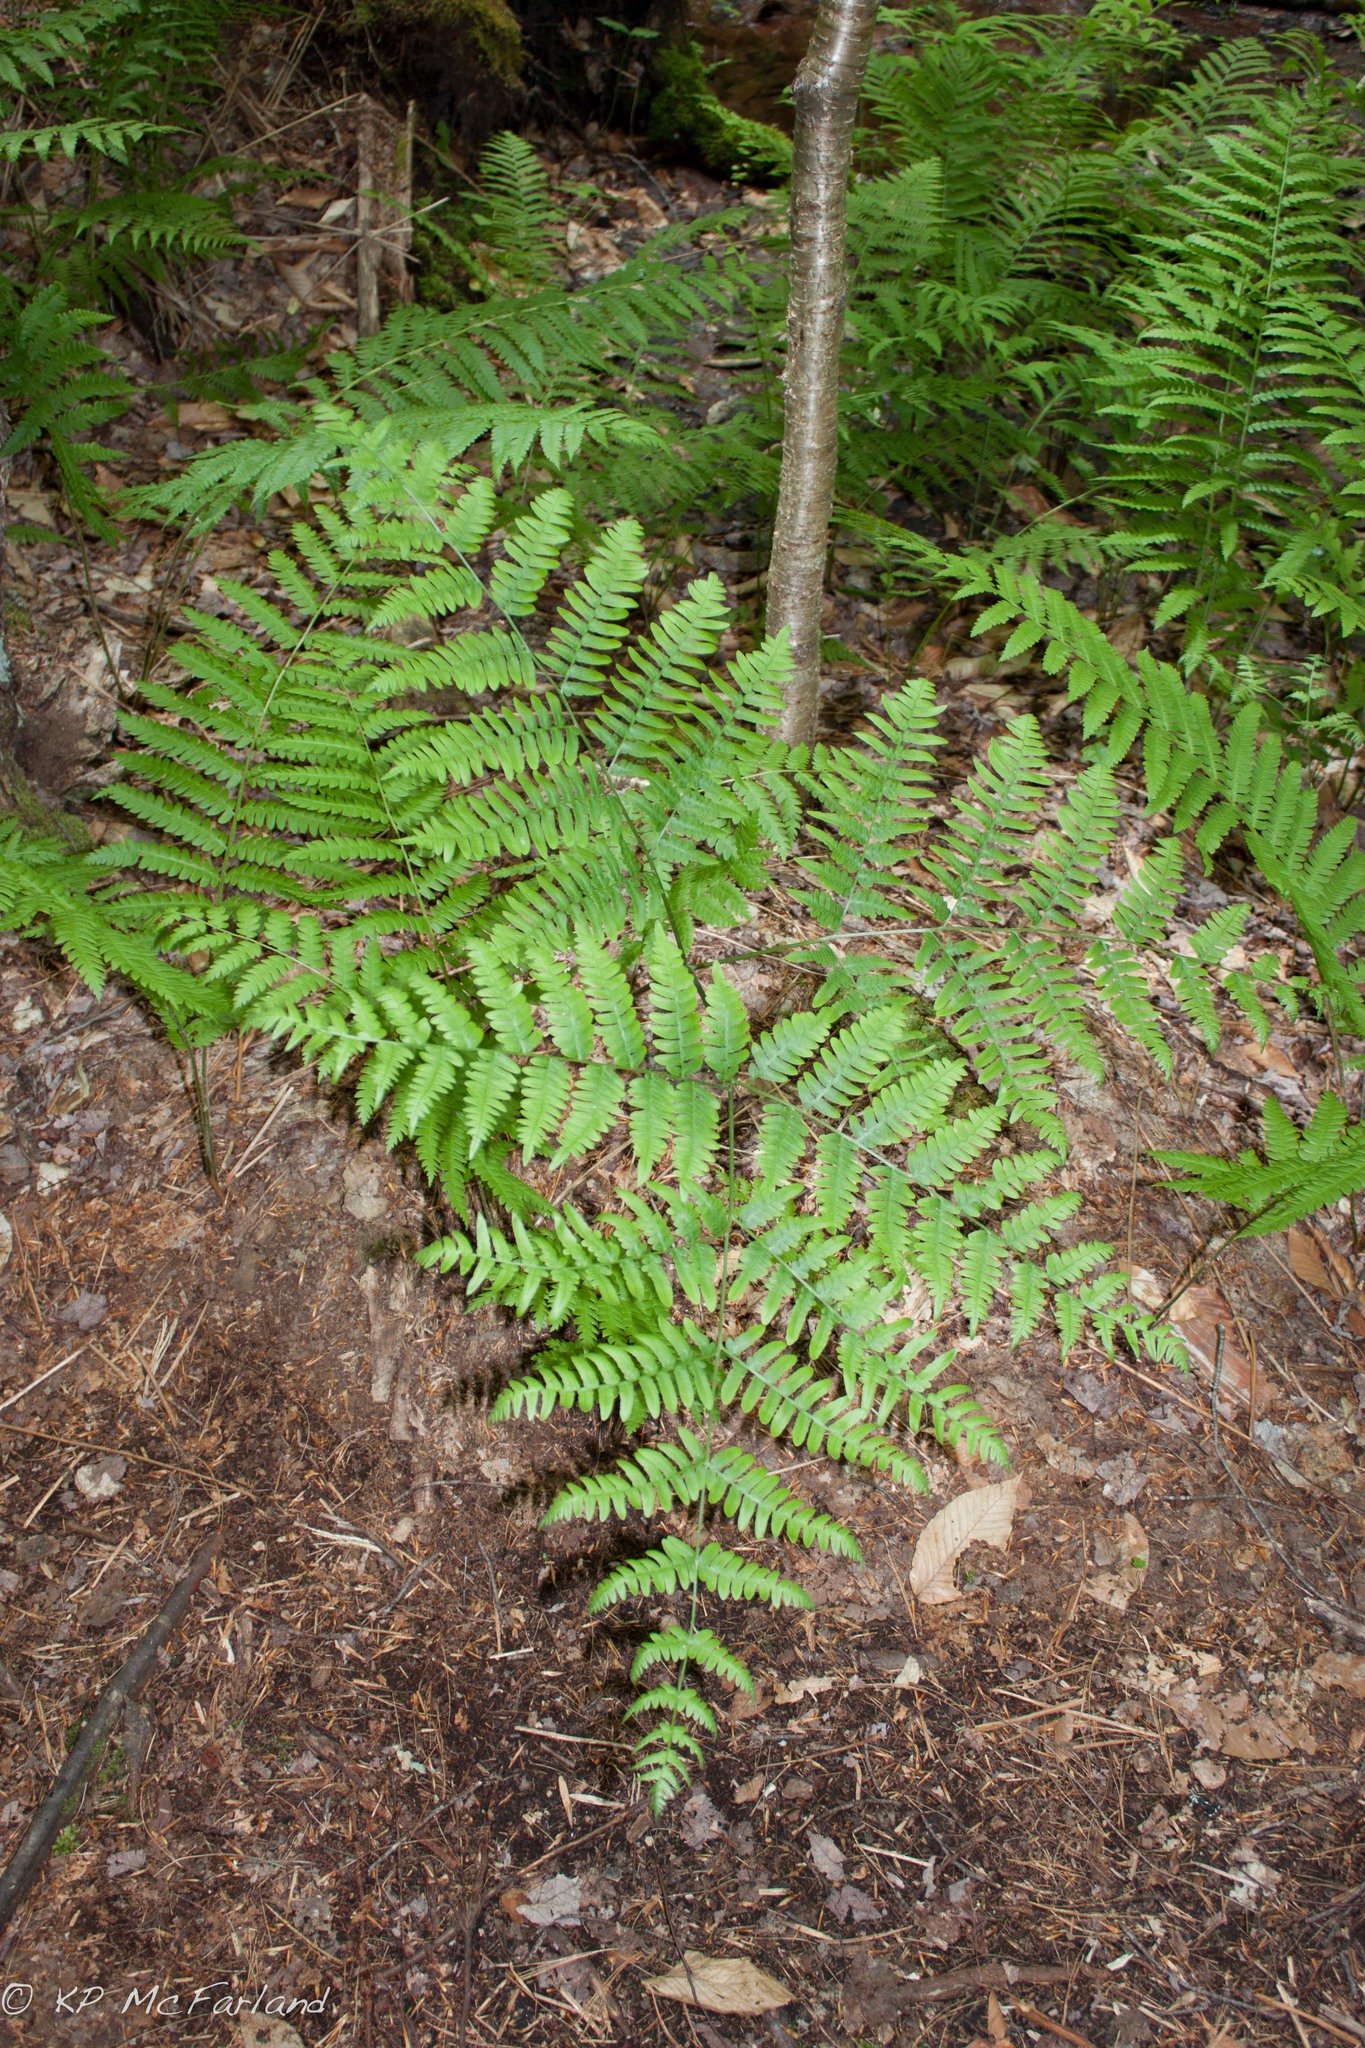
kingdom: Plantae
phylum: Tracheophyta
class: Polypodiopsida
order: Polypodiales
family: Dennstaedtiaceae
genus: Pteridium
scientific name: Pteridium aquilinum
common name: Bracken
